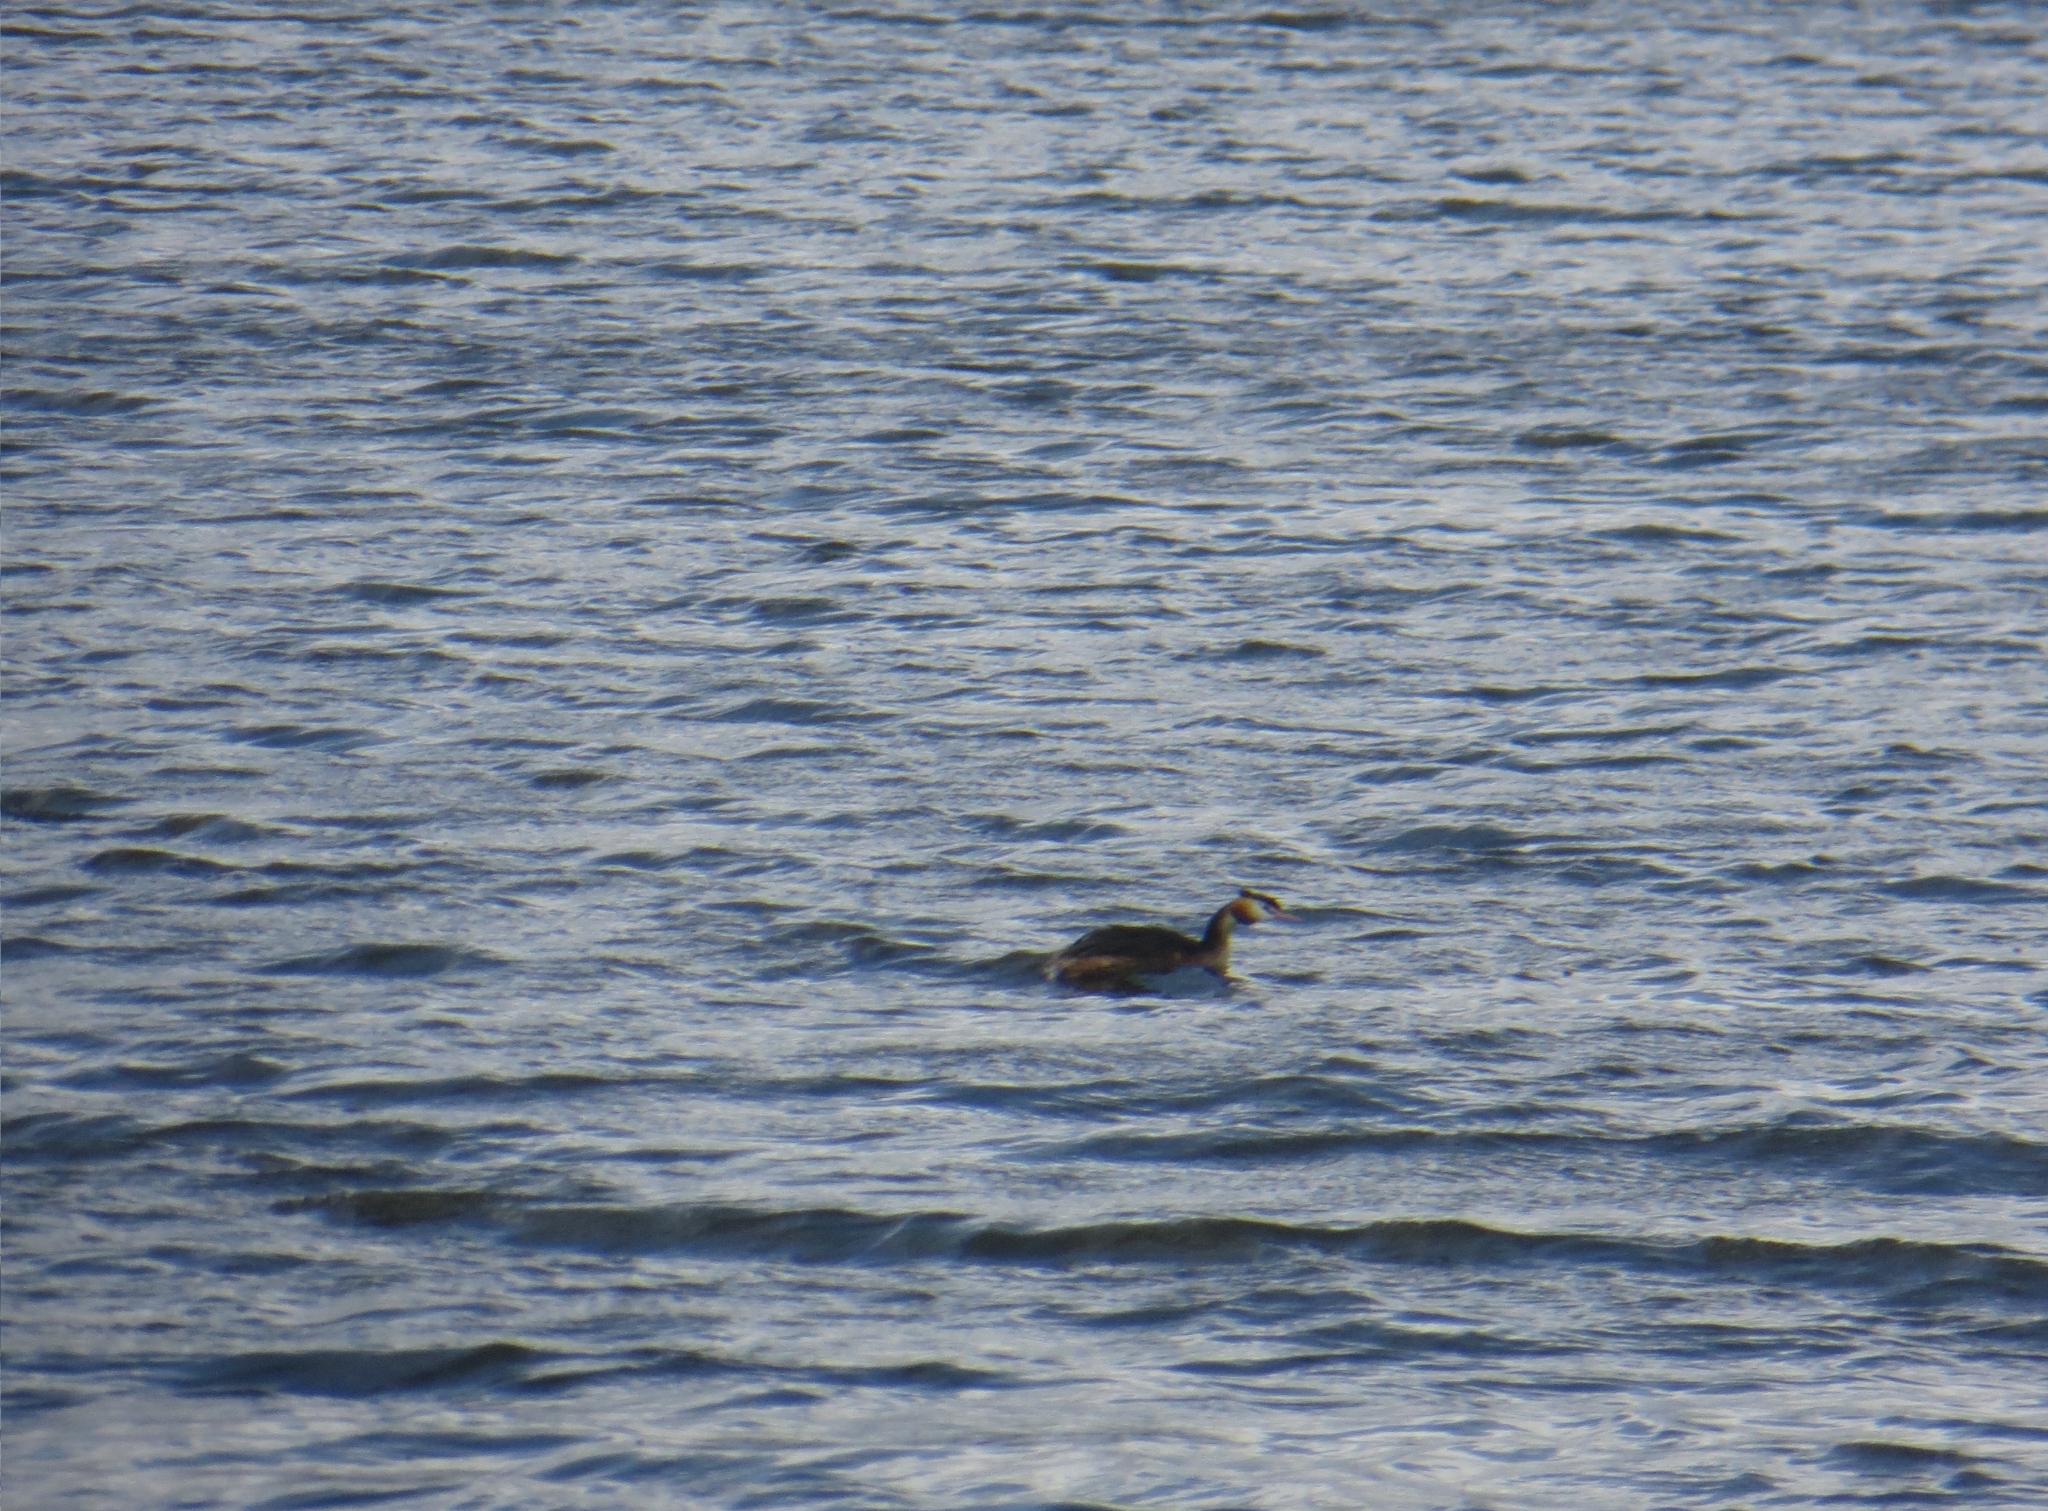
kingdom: Animalia
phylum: Chordata
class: Aves
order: Podicipediformes
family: Podicipedidae
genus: Podiceps
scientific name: Podiceps cristatus
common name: Great crested grebe
